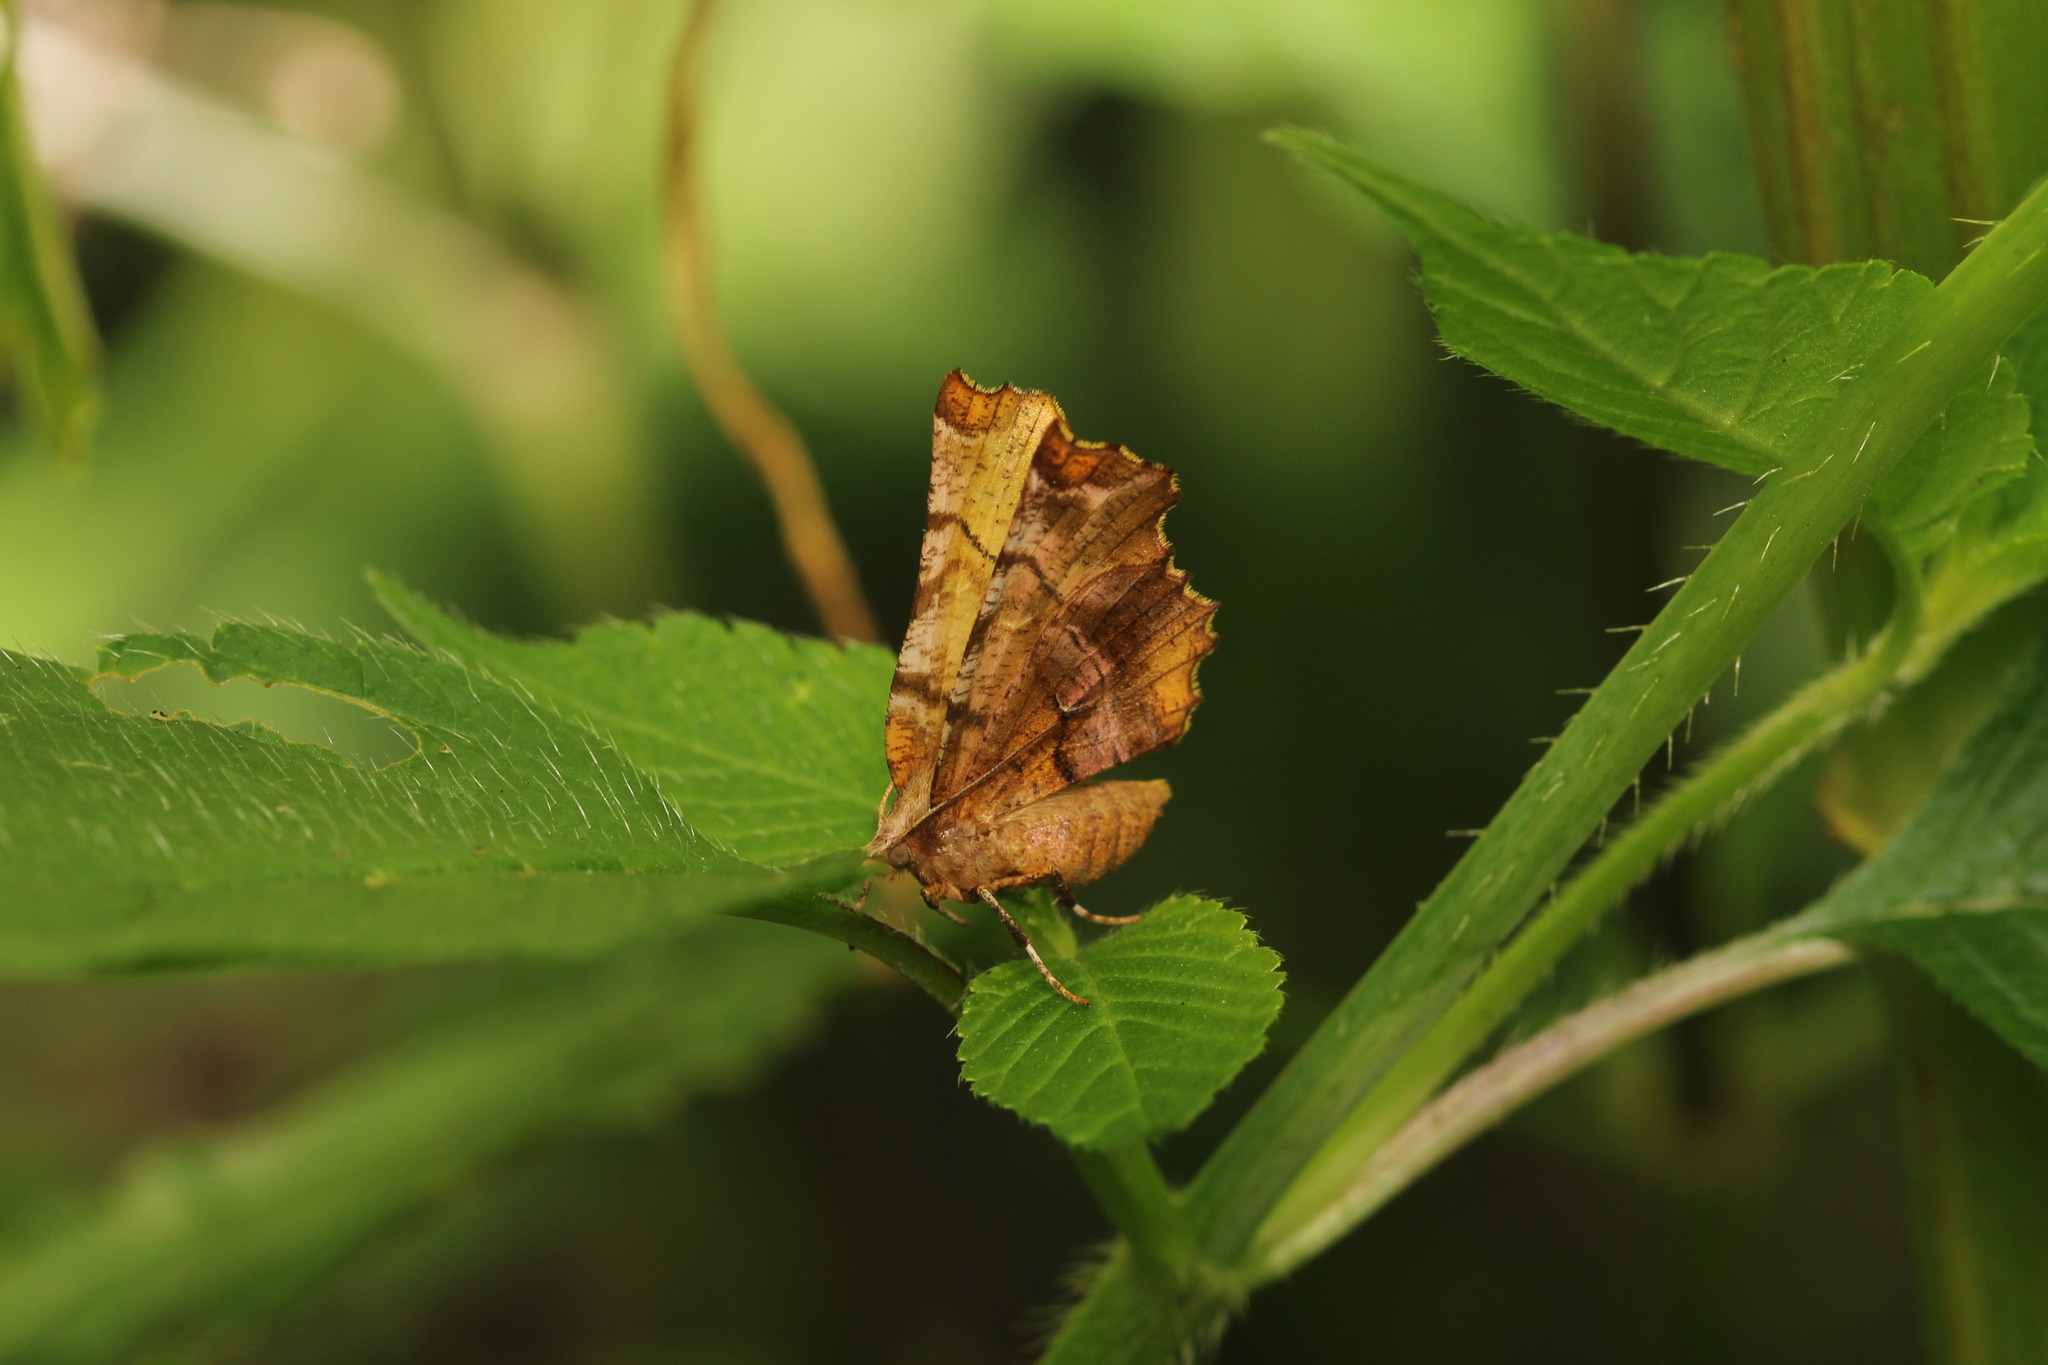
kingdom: Animalia
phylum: Arthropoda
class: Insecta
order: Lepidoptera
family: Geometridae
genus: Selenia
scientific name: Selenia dentaria
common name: Early thorn
